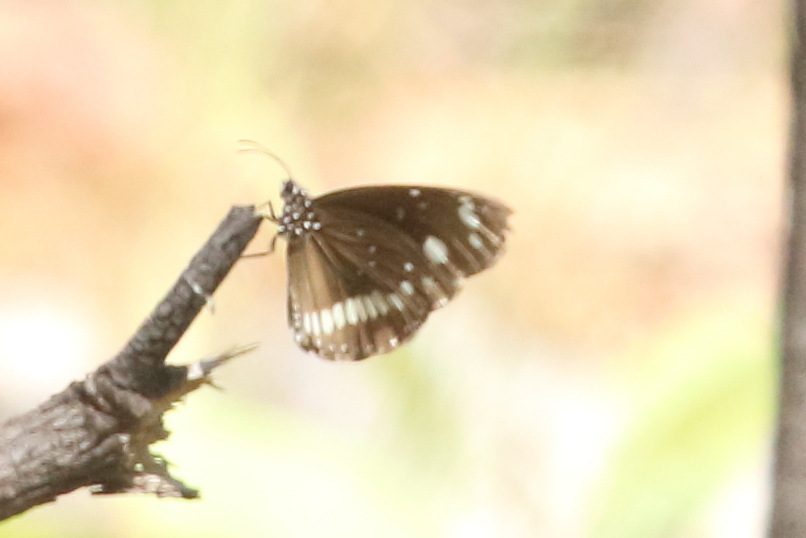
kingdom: Animalia
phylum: Arthropoda
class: Insecta
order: Lepidoptera
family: Nymphalidae
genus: Euploea
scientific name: Euploea core
